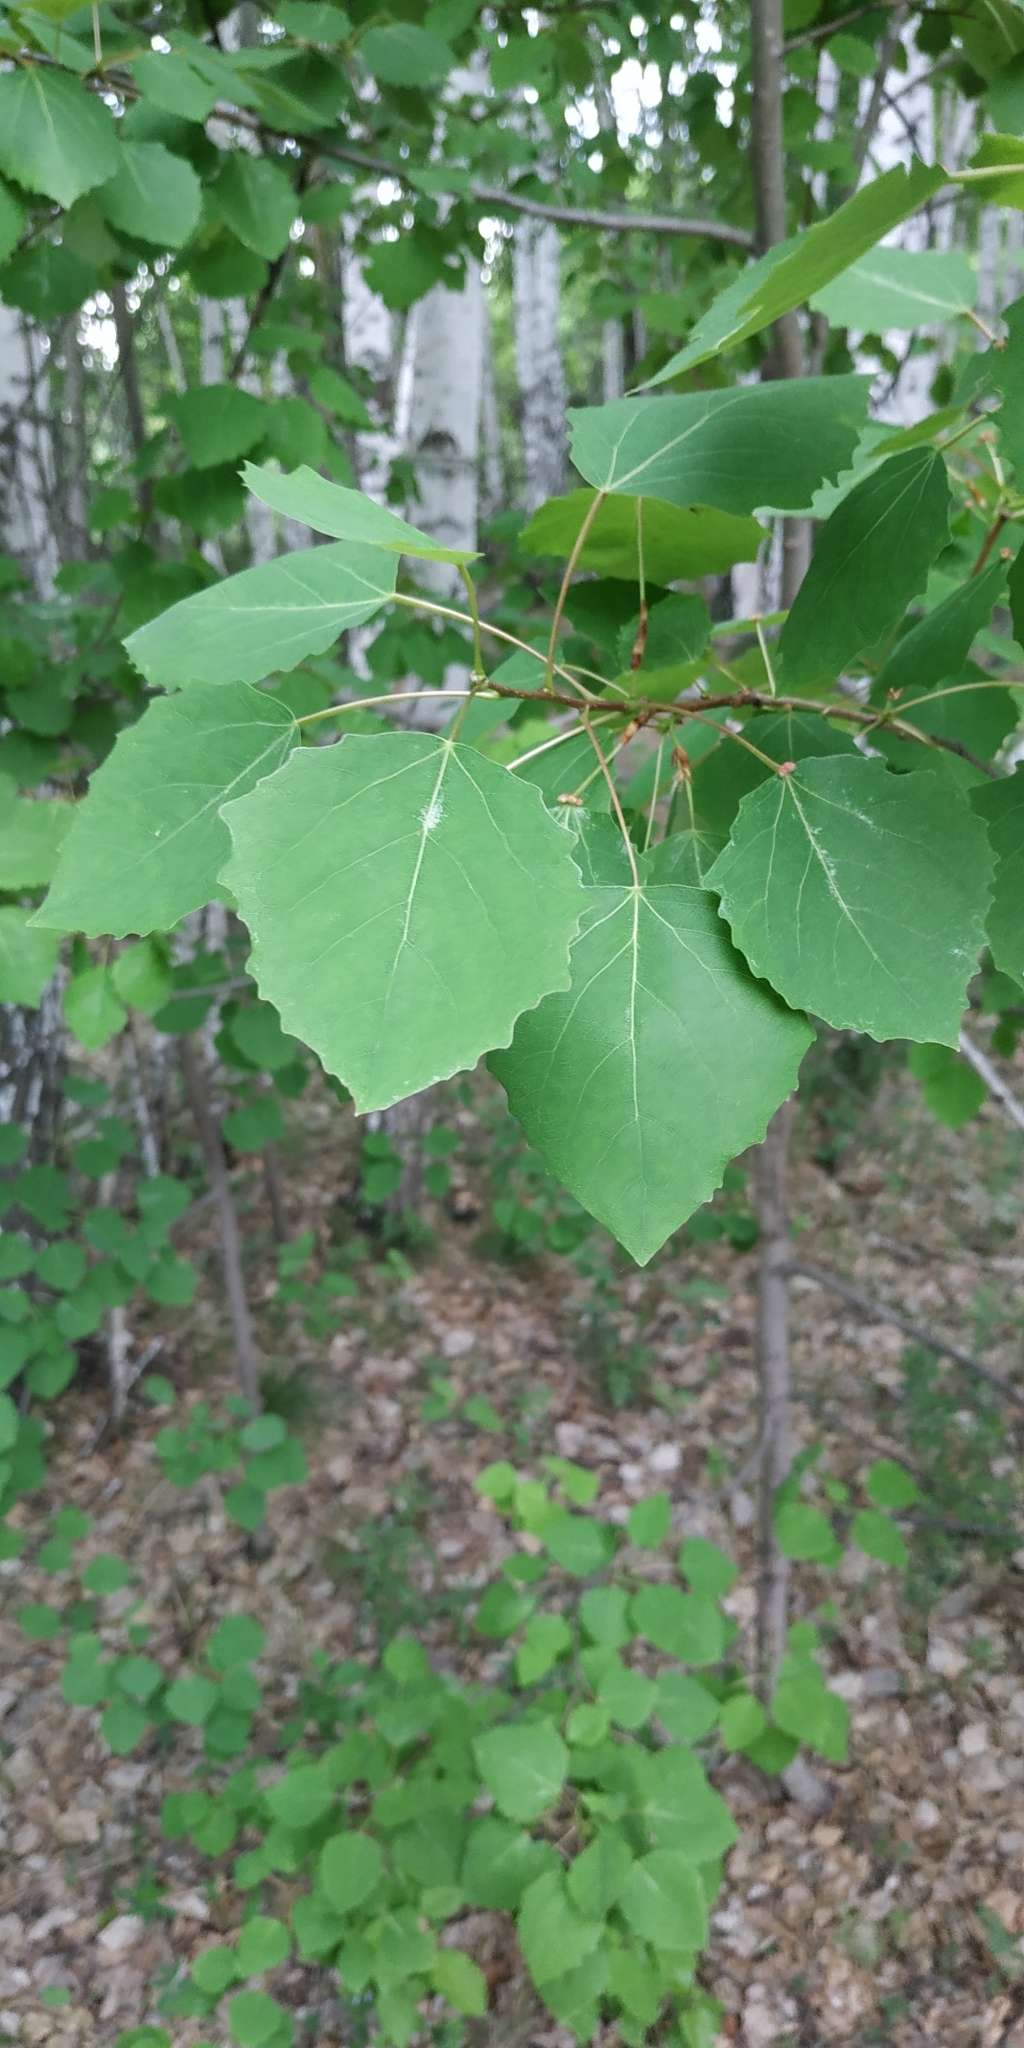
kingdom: Plantae
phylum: Tracheophyta
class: Magnoliopsida
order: Malpighiales
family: Salicaceae
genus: Populus
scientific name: Populus tremula
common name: European aspen
